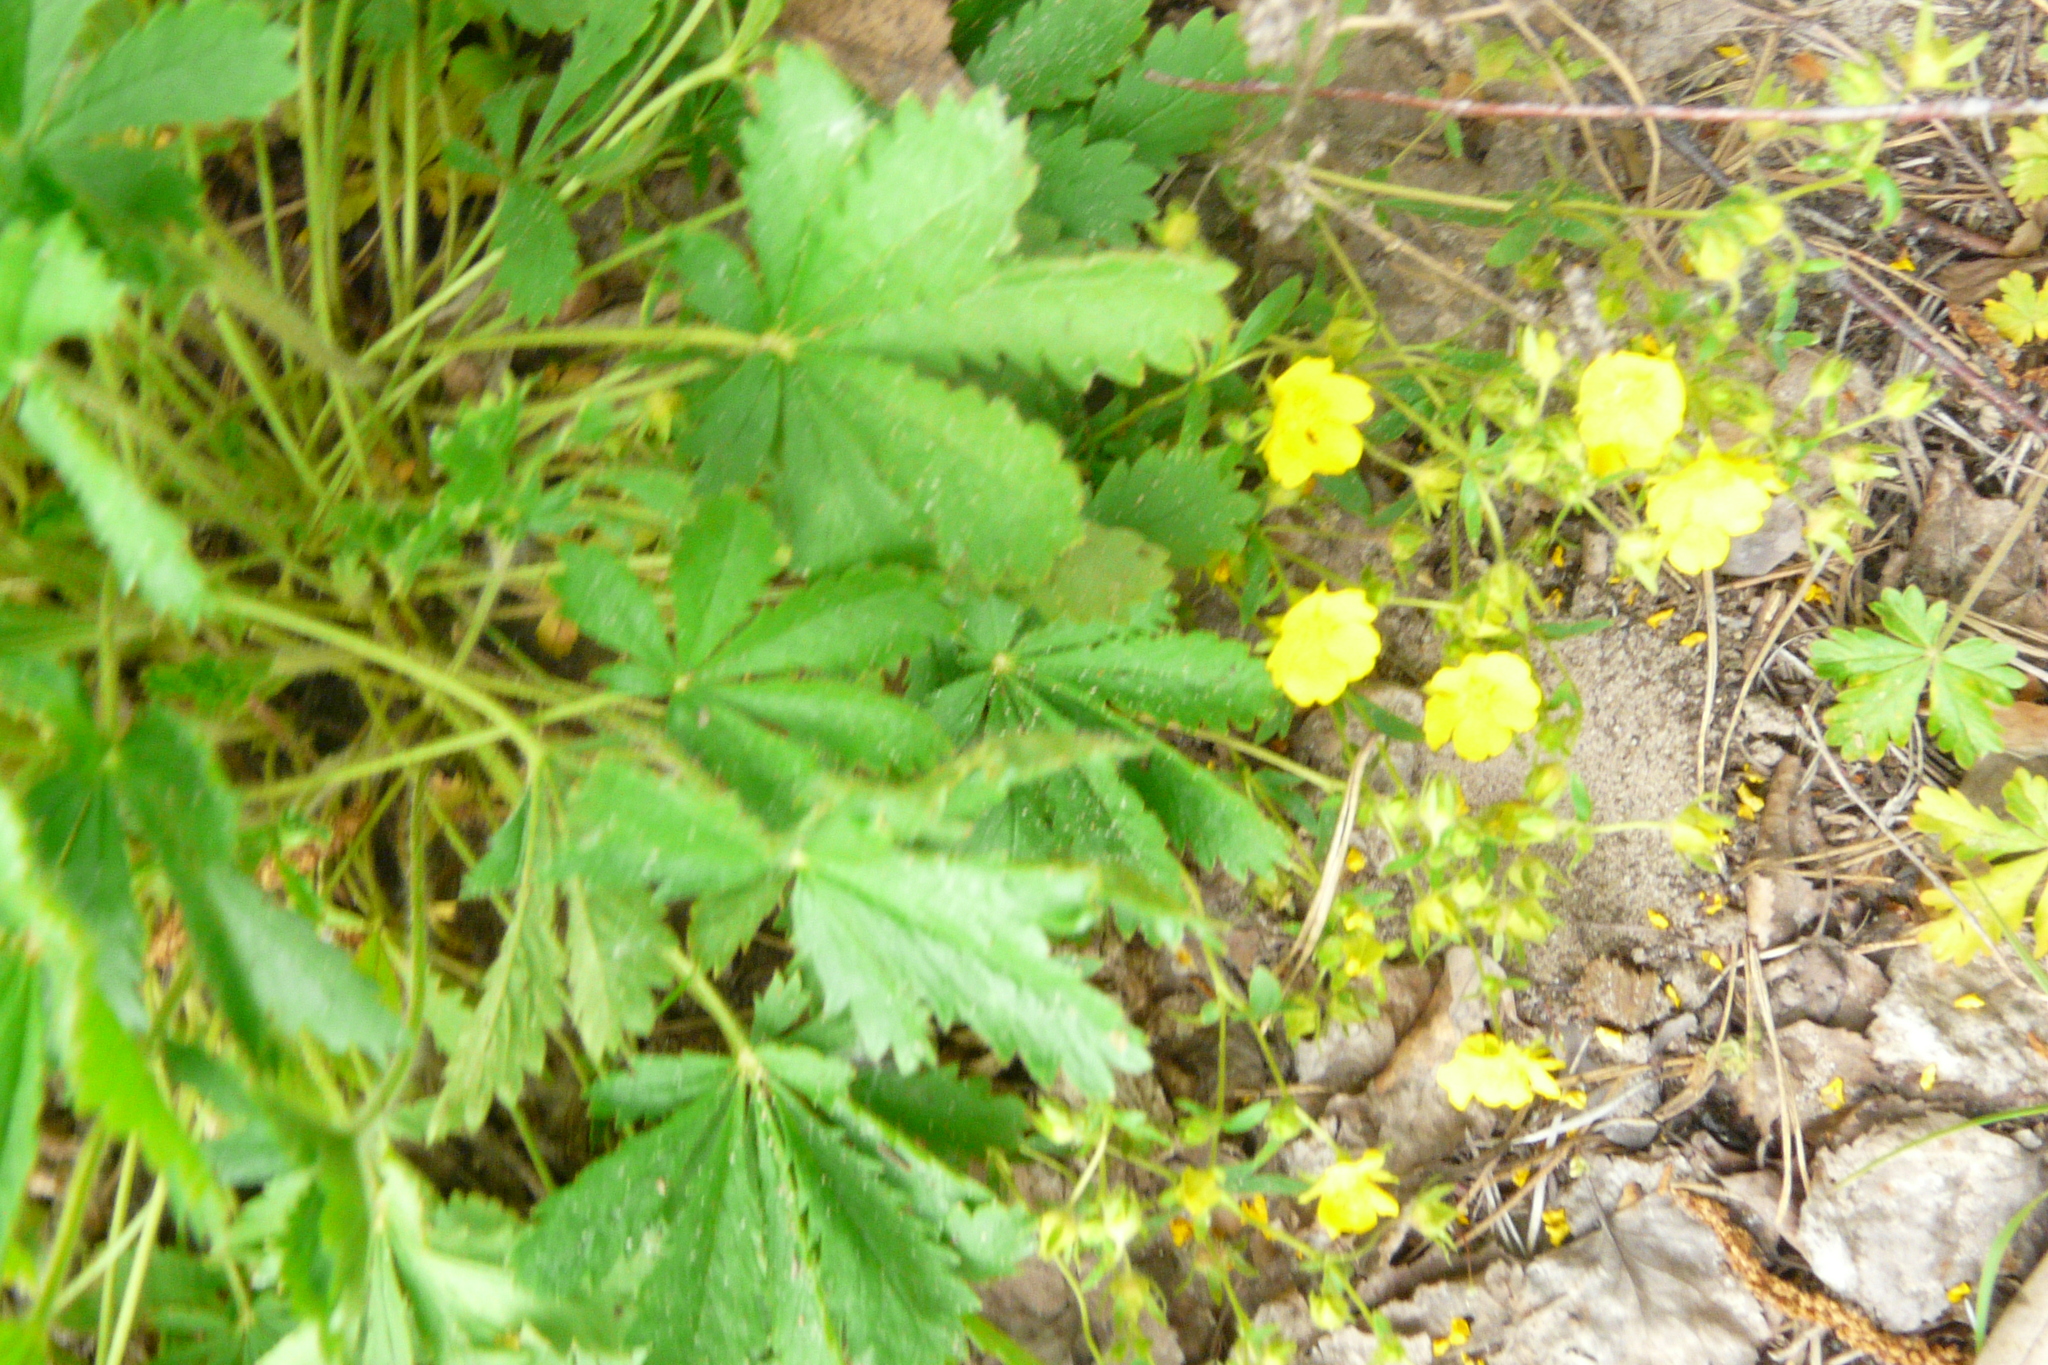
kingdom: Plantae
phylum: Tracheophyta
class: Magnoliopsida
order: Rosales
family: Rosaceae
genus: Potentilla
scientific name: Potentilla humifusa
